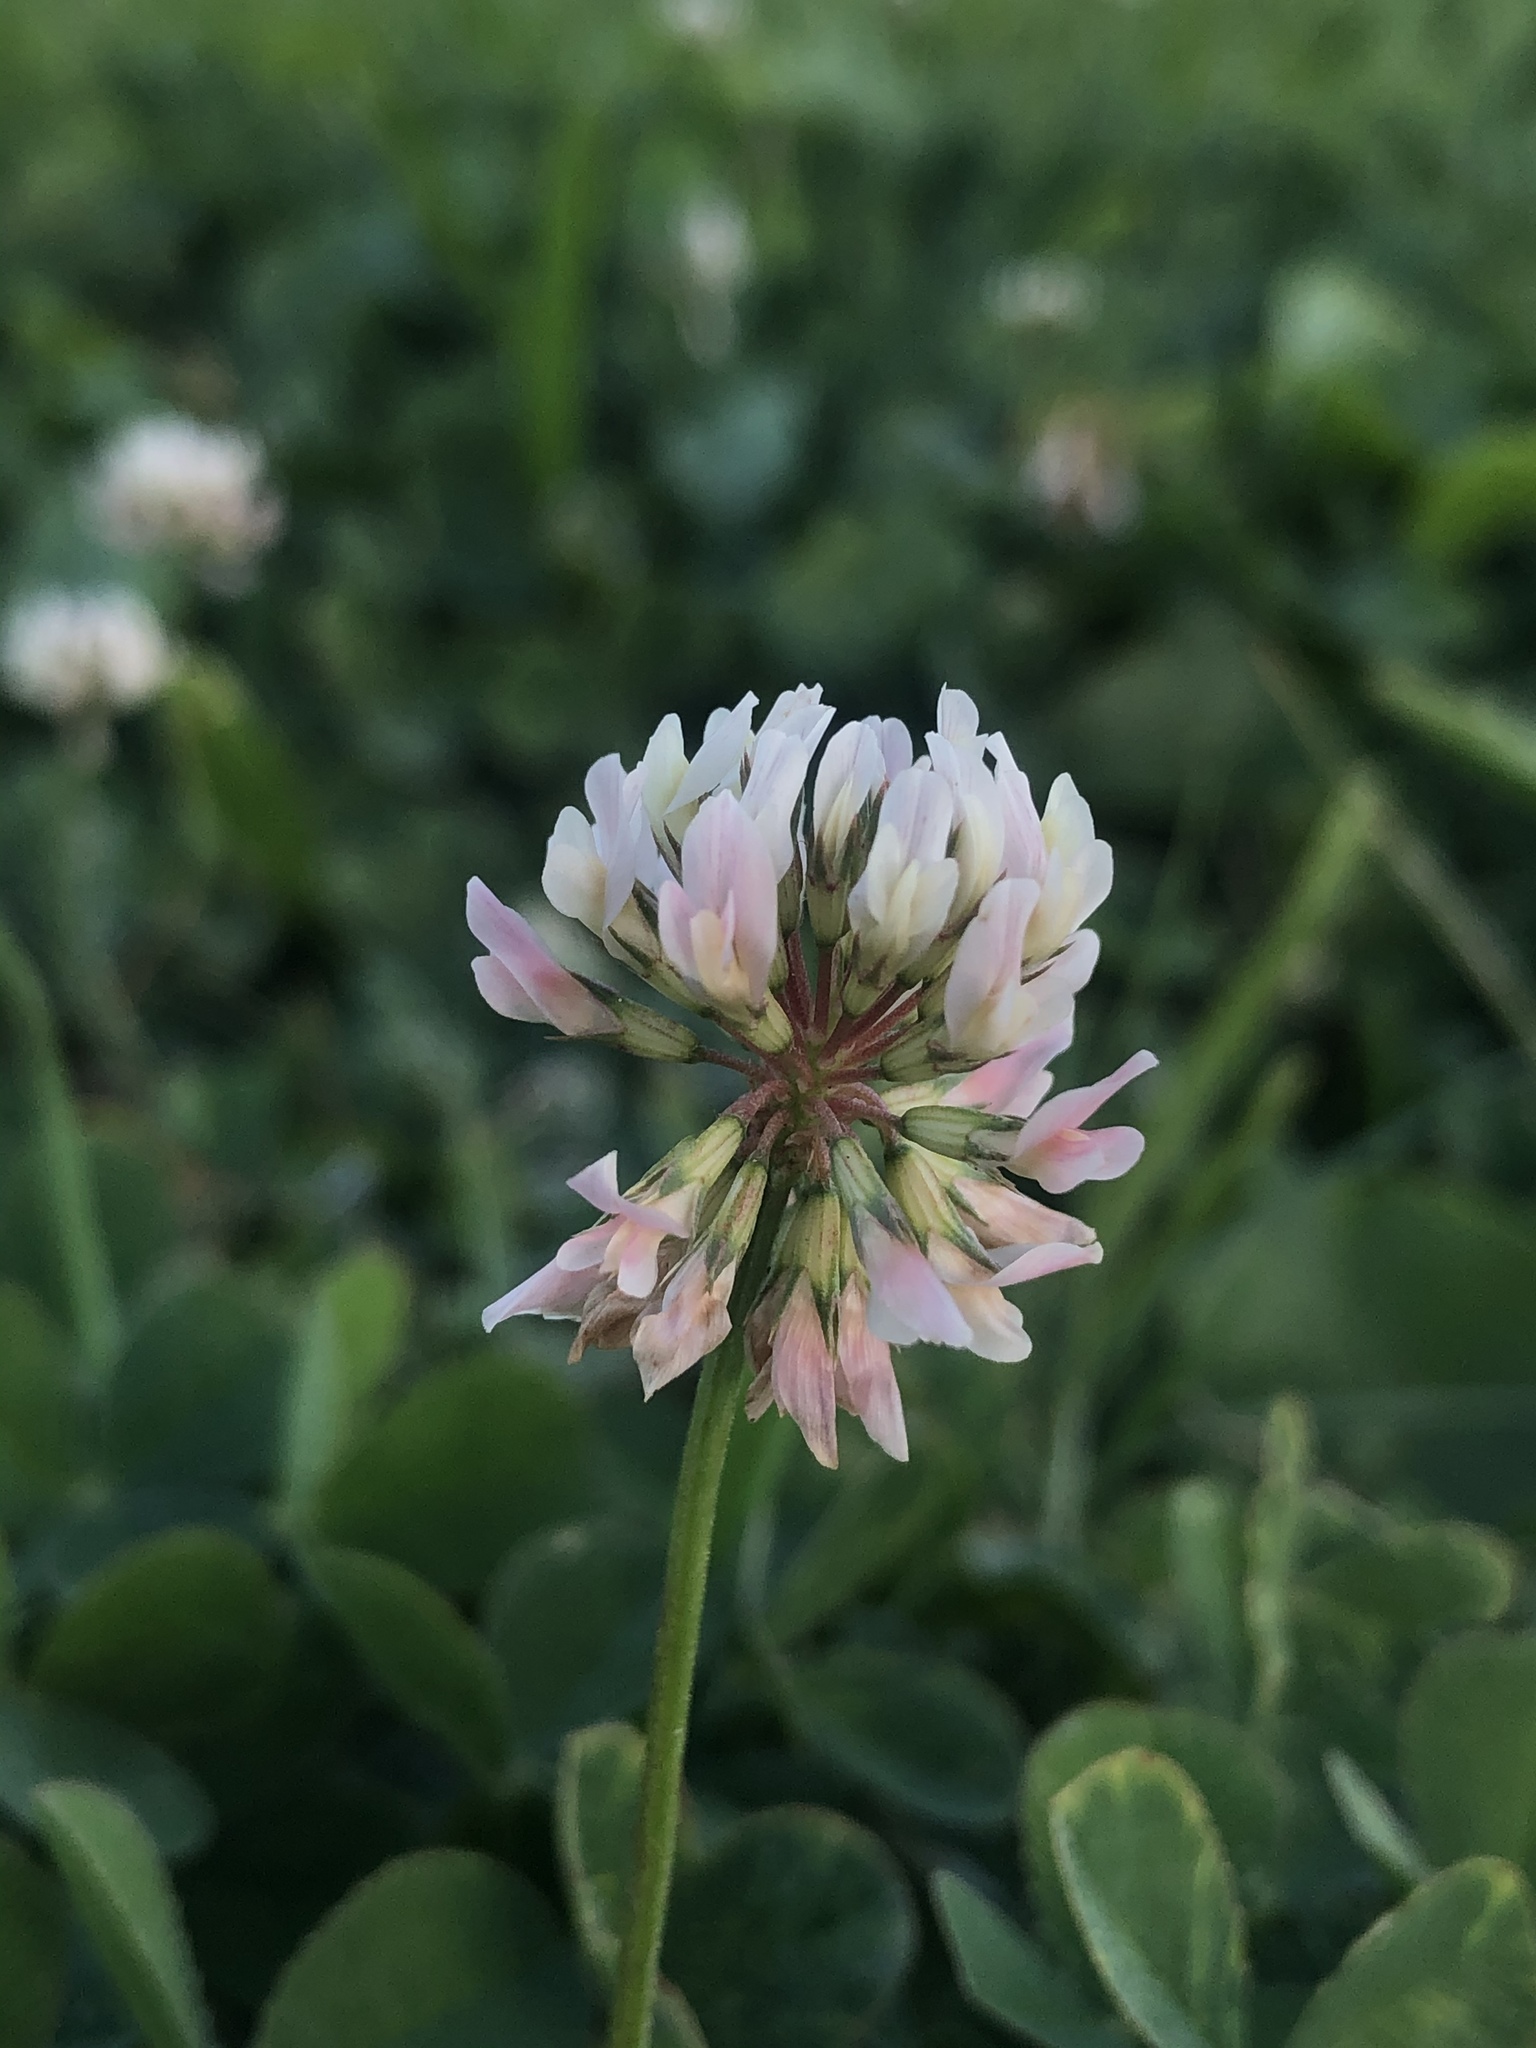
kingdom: Plantae
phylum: Tracheophyta
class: Magnoliopsida
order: Fabales
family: Fabaceae
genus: Trifolium
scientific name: Trifolium repens
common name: White clover
